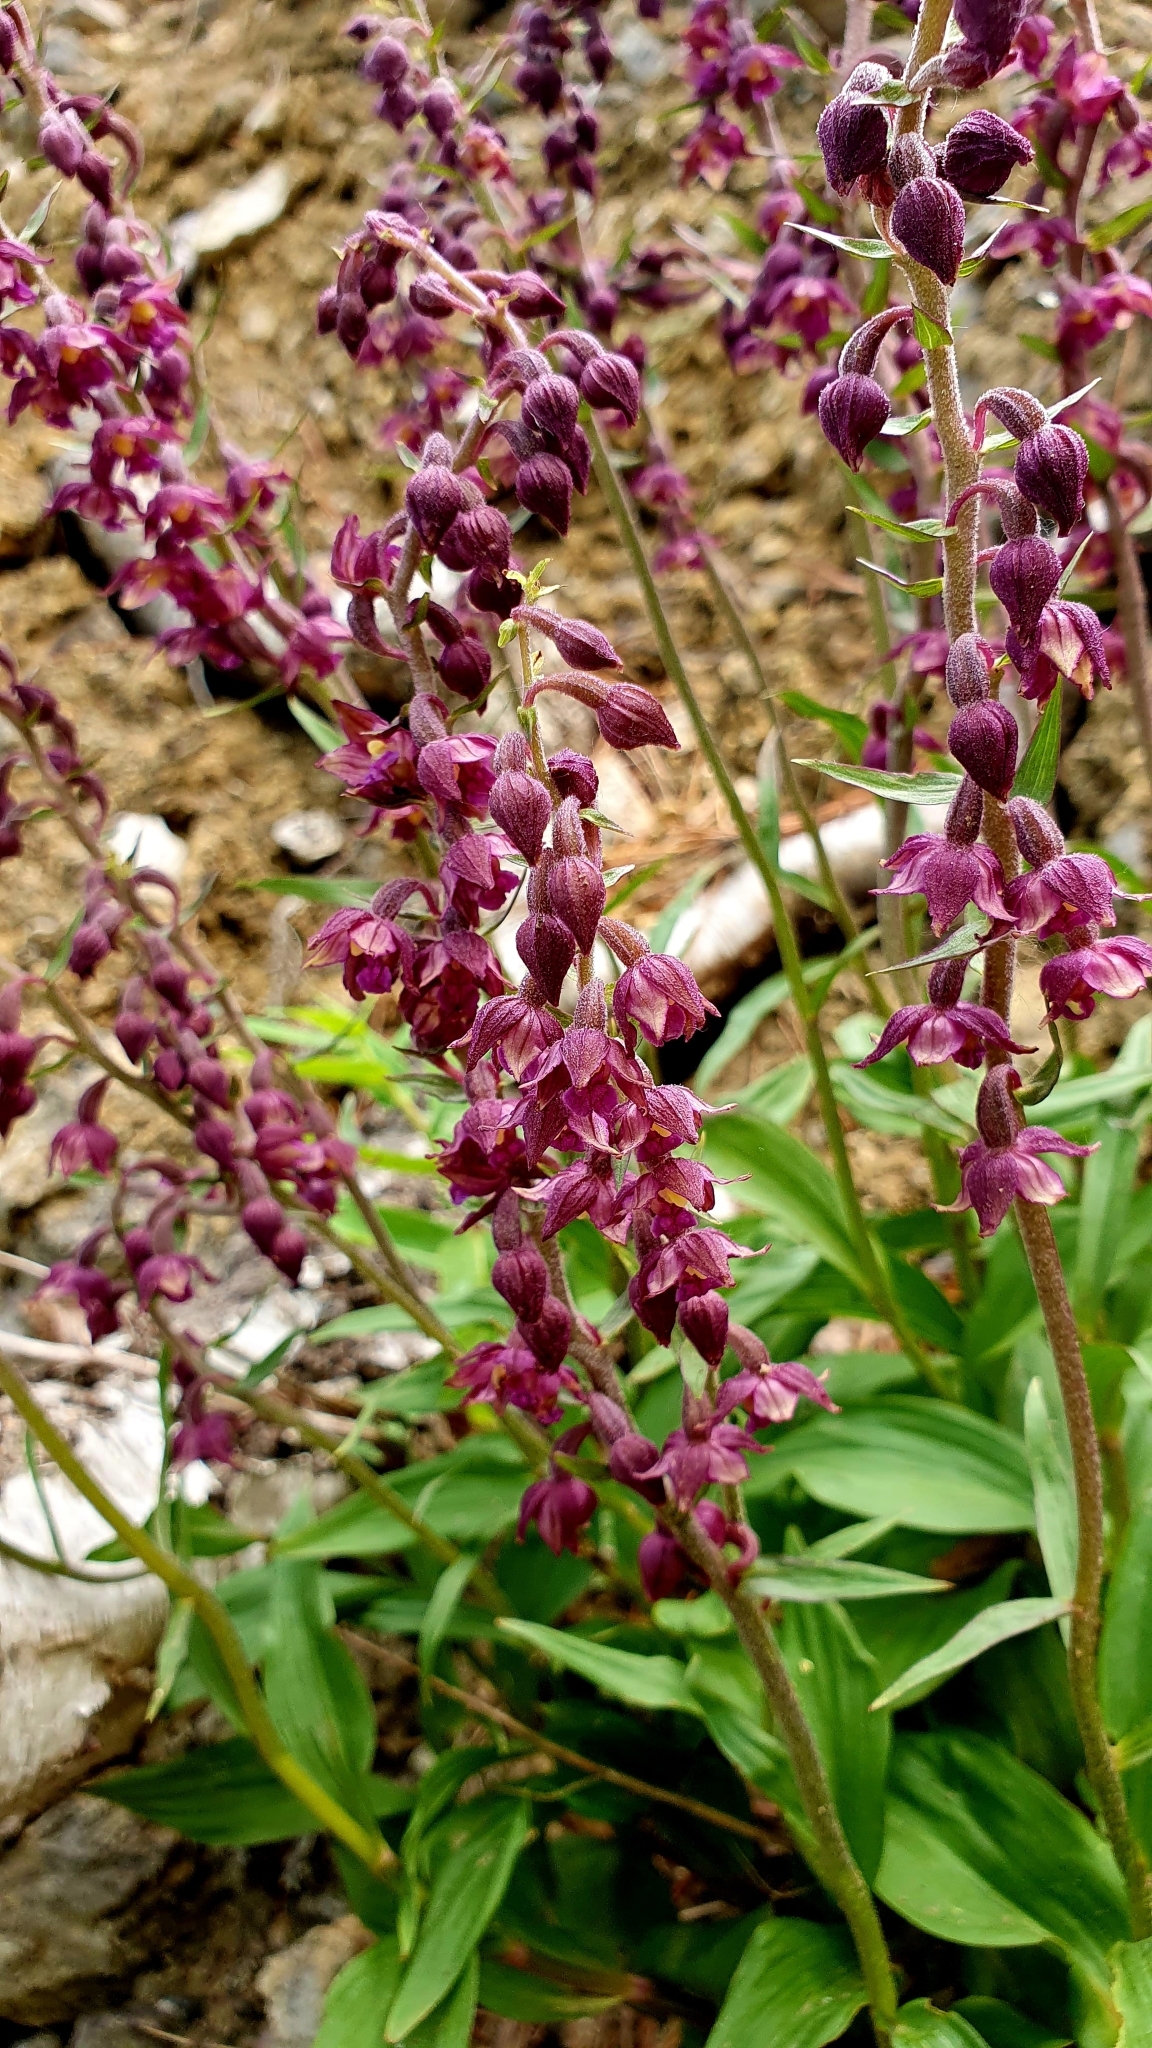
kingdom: Plantae
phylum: Tracheophyta
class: Liliopsida
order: Asparagales
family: Orchidaceae
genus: Epipactis
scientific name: Epipactis atrorubens
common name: Dark-red helleborine
